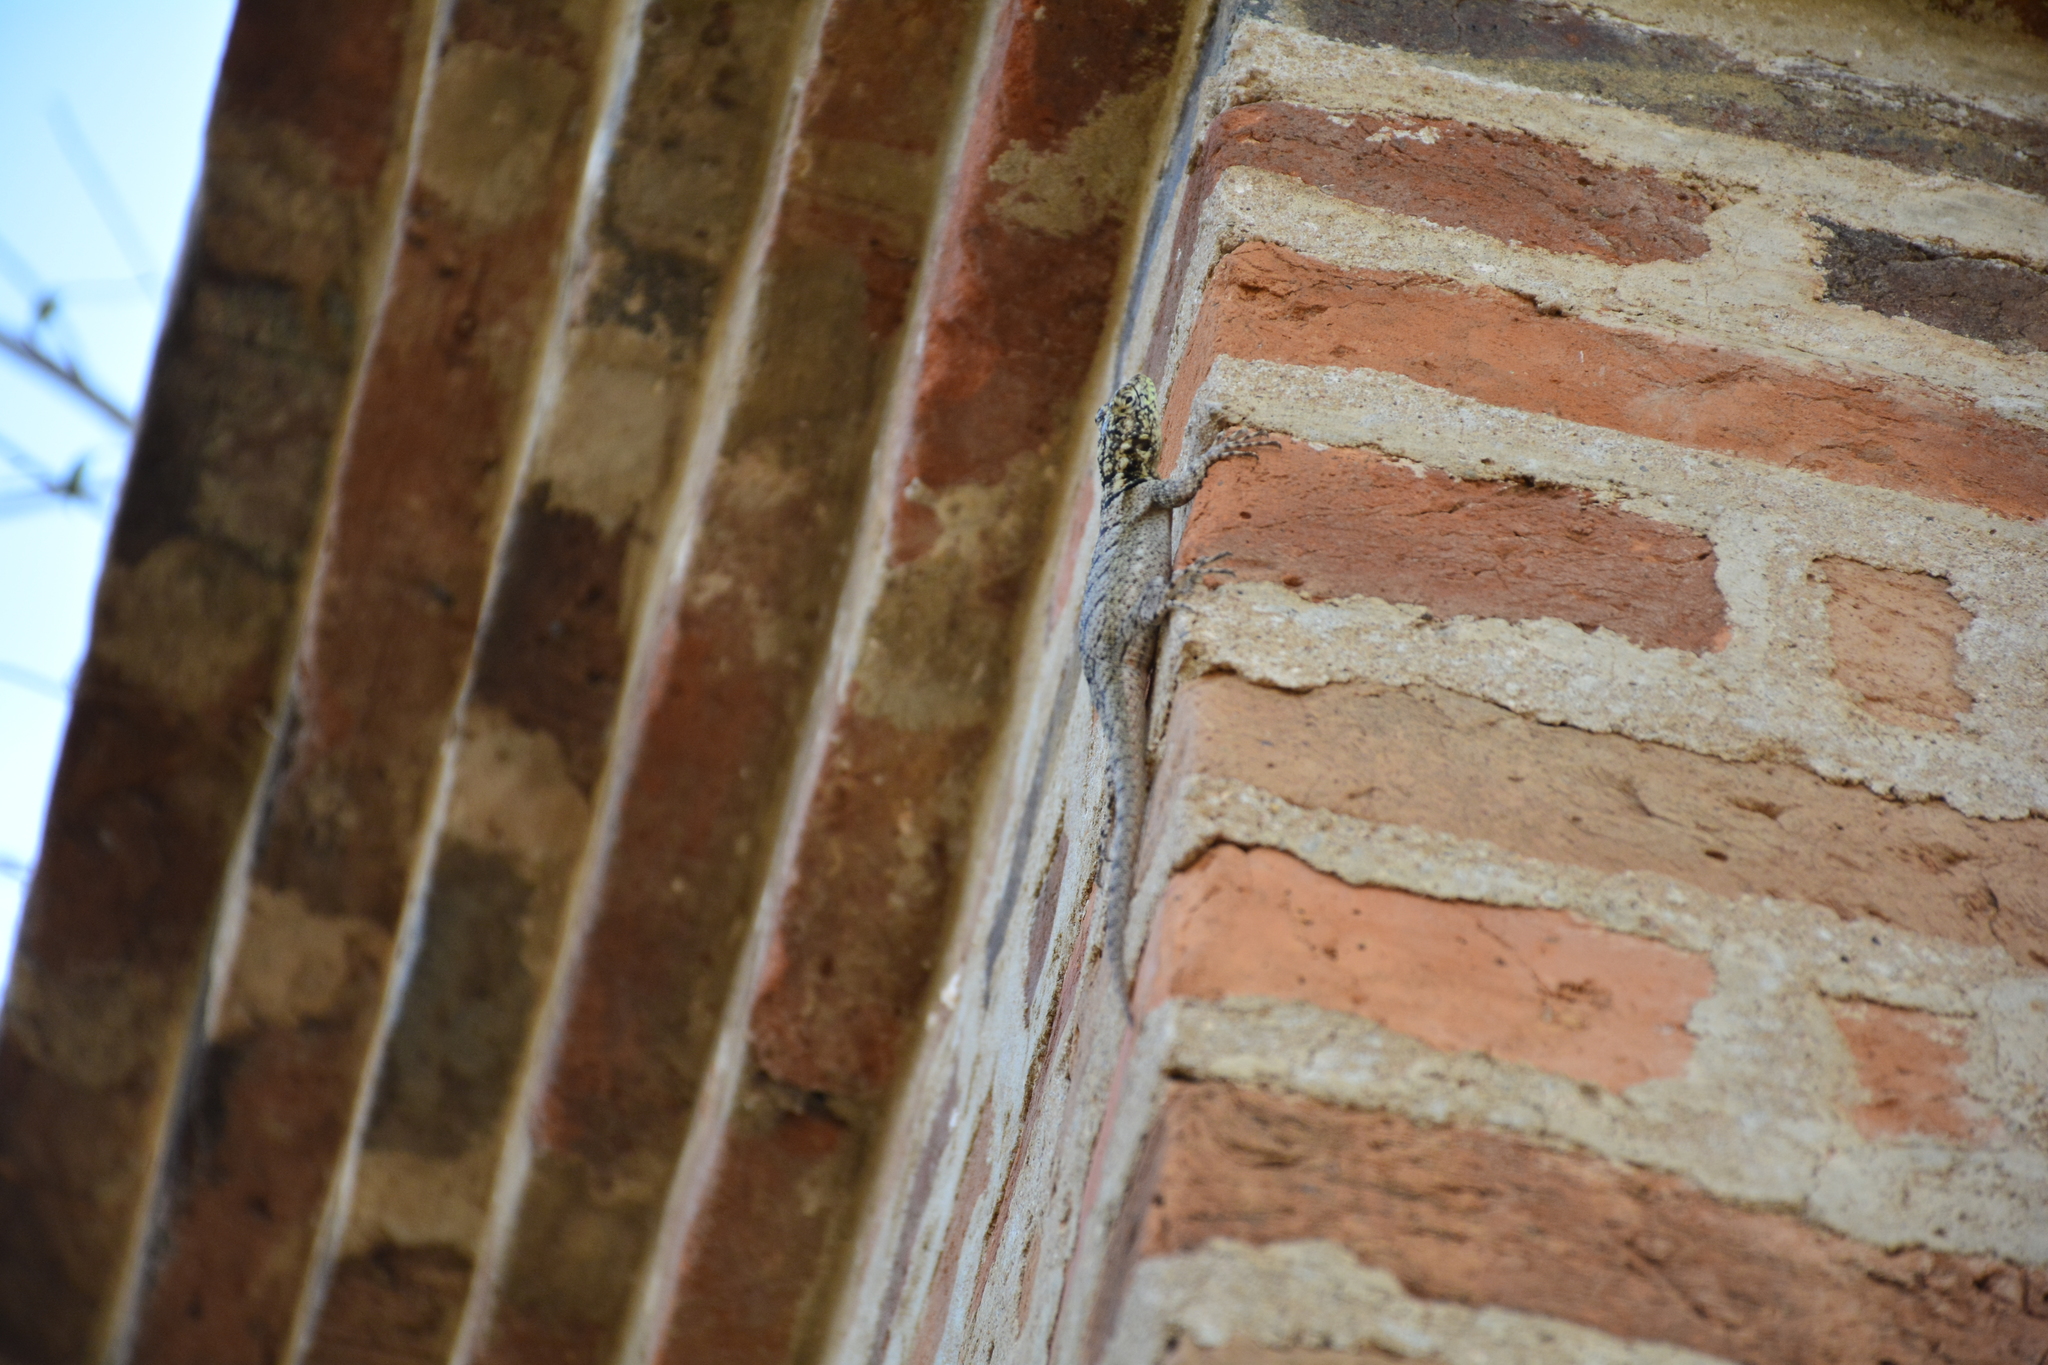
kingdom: Animalia
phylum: Chordata
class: Squamata
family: Tropiduridae
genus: Tropidurus
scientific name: Tropidurus lagunablanca
